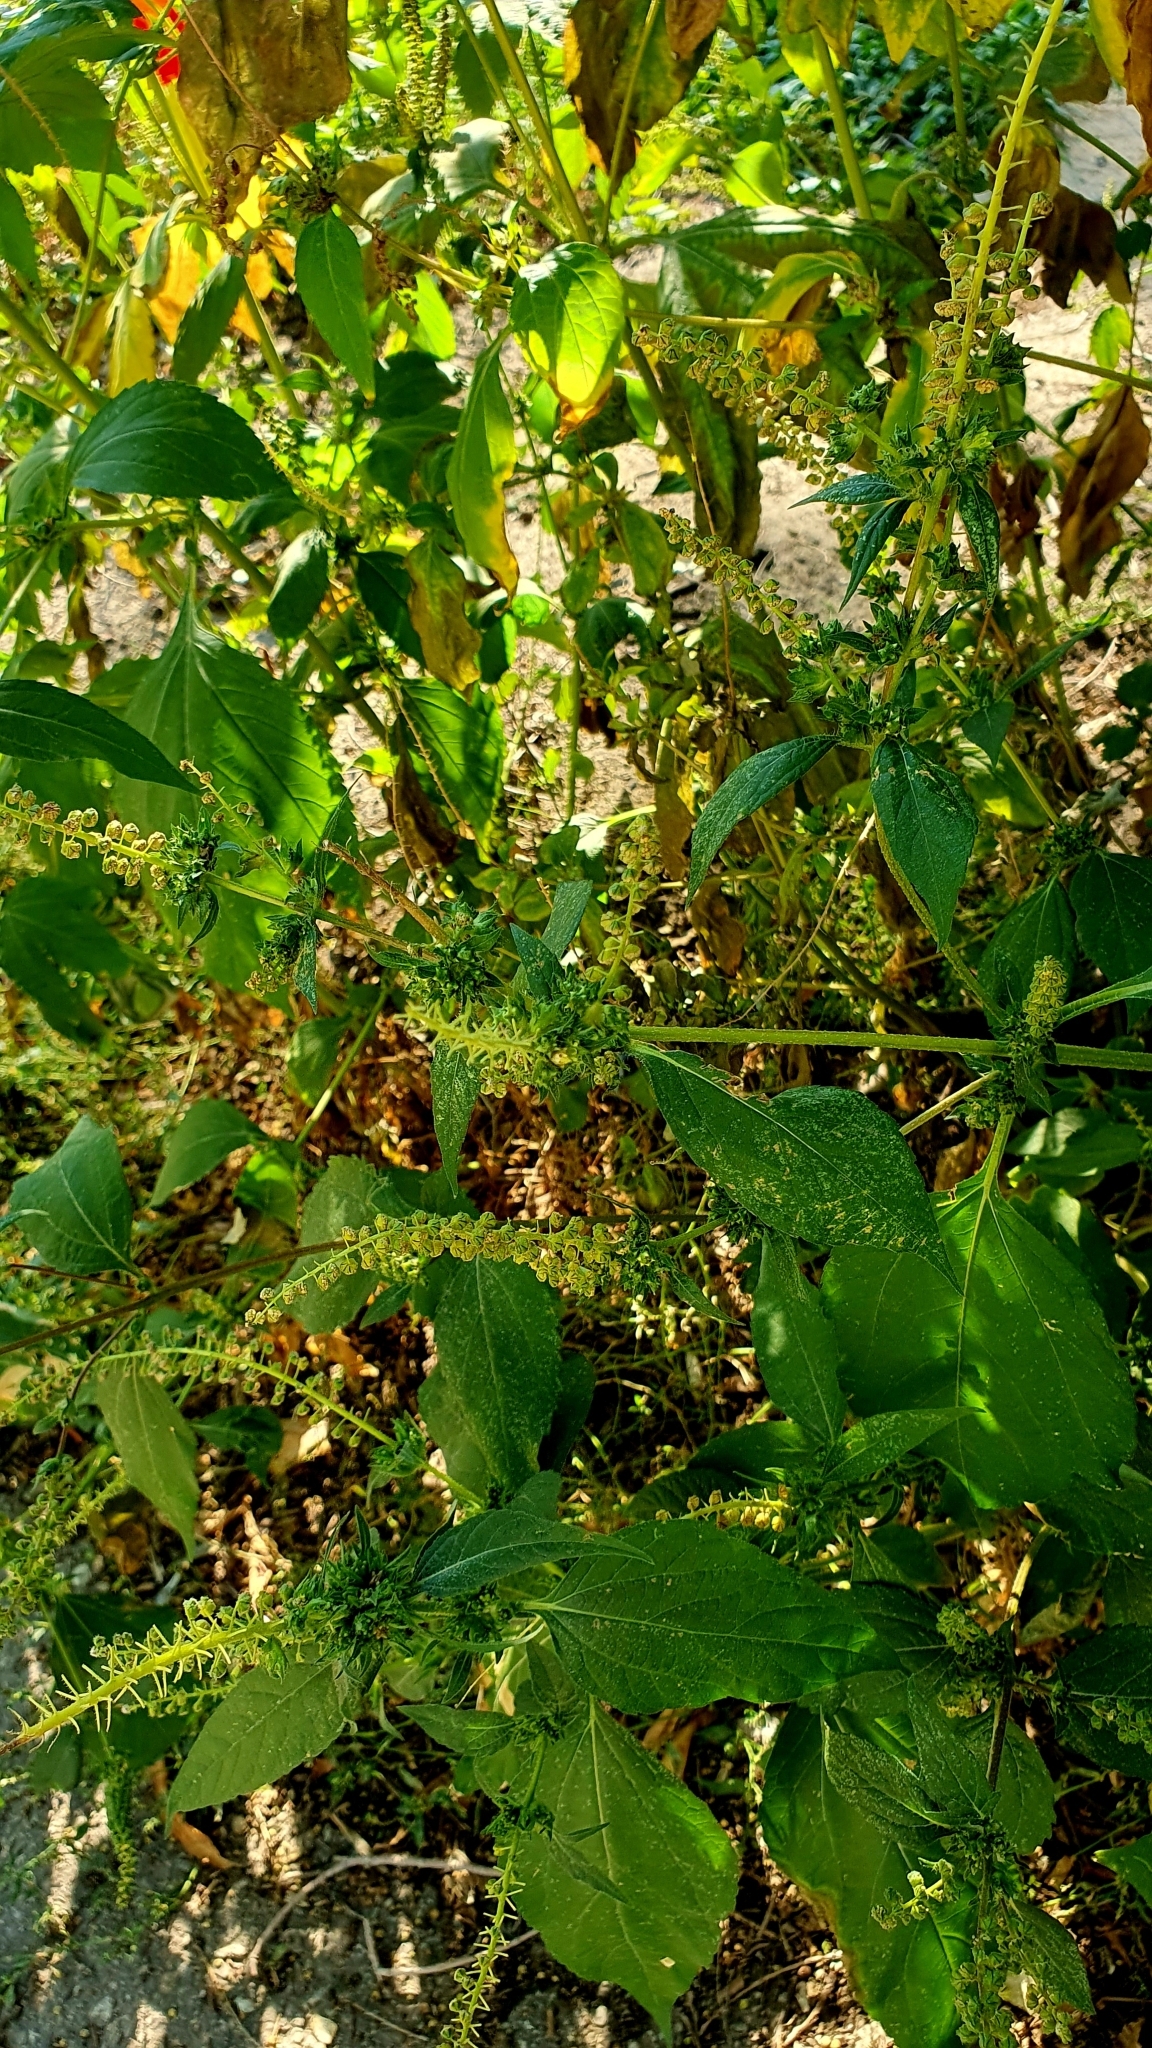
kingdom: Plantae
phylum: Tracheophyta
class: Magnoliopsida
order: Asterales
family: Asteraceae
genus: Ambrosia
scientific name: Ambrosia trifida
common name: Giant ragweed
